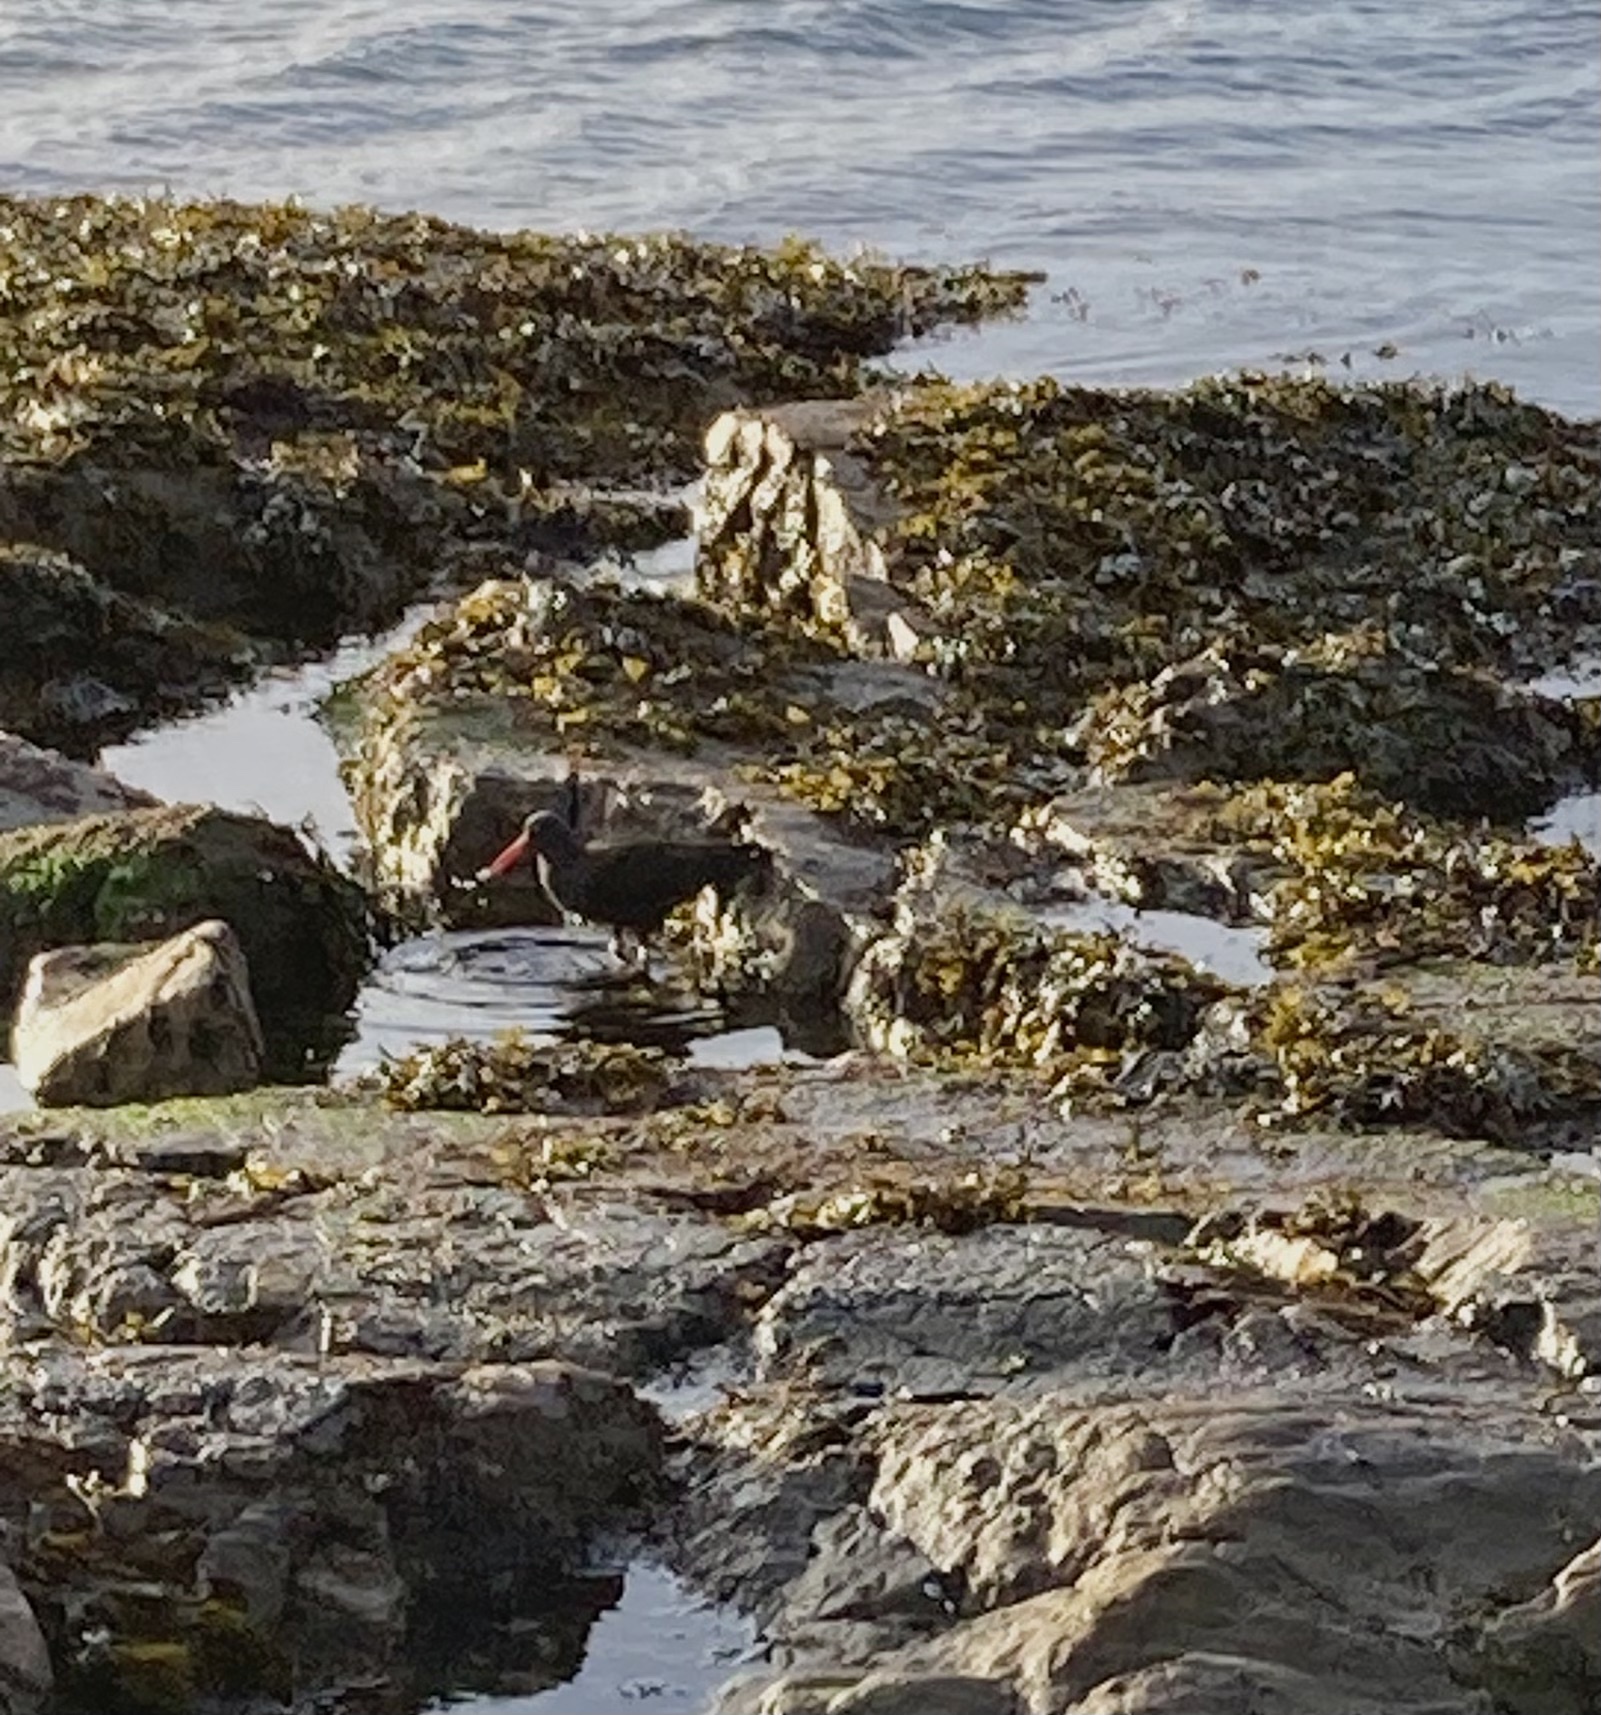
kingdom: Animalia
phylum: Chordata
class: Aves
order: Charadriiformes
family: Haematopodidae
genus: Haematopus
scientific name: Haematopus bachmani
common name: Black oystercatcher
